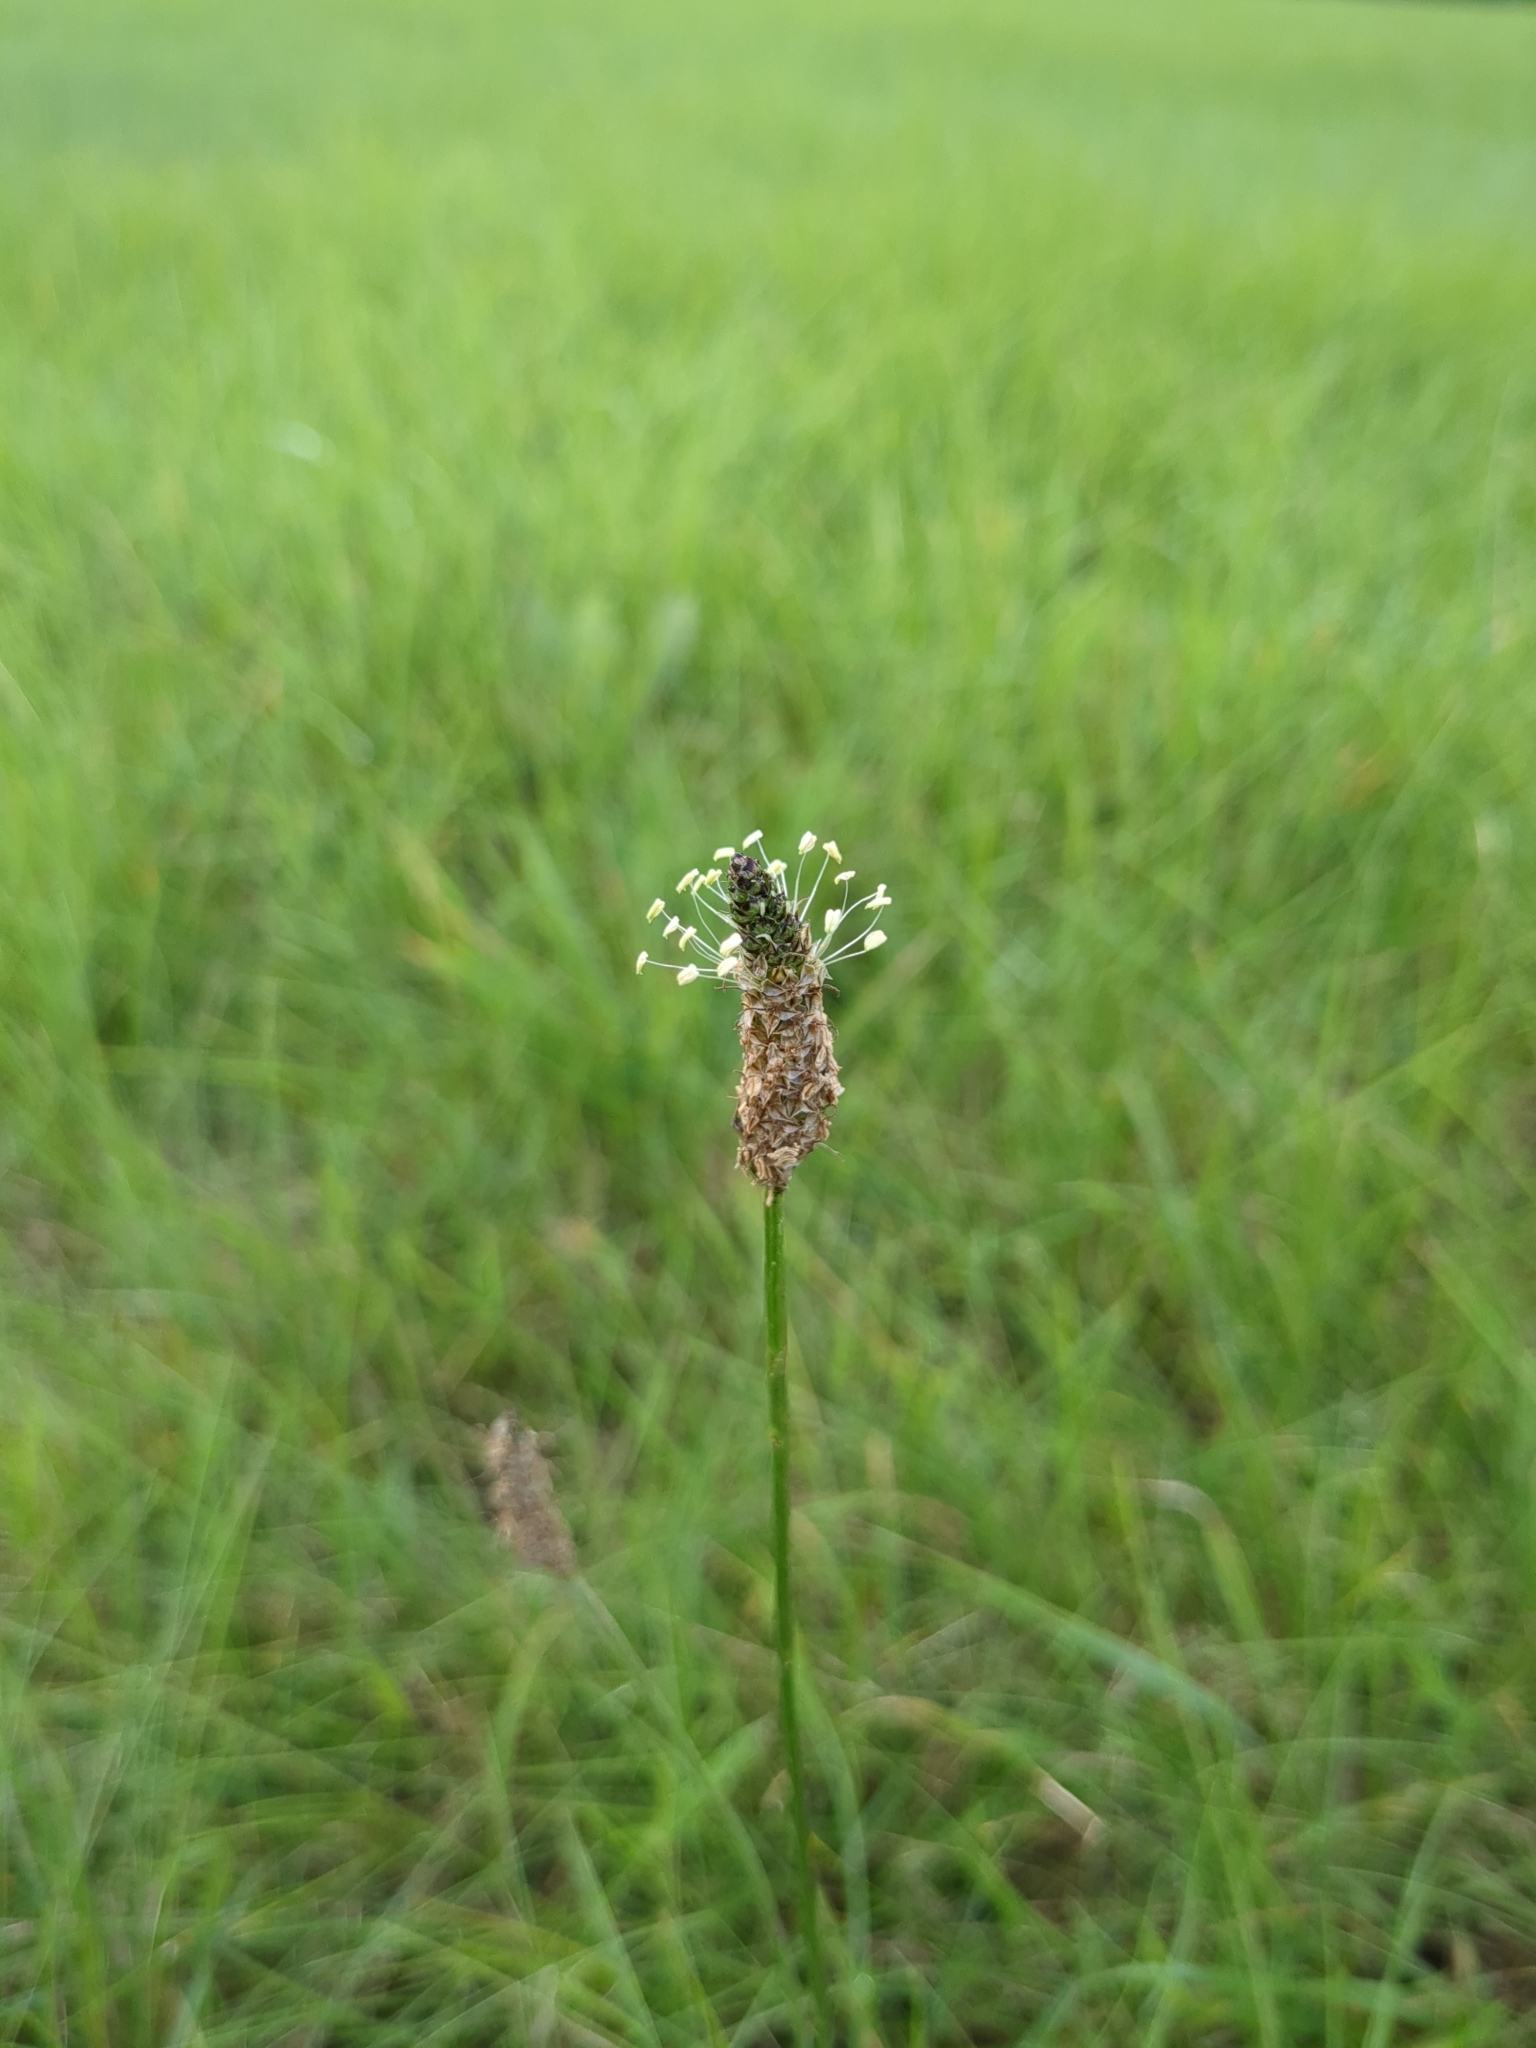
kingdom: Plantae
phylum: Tracheophyta
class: Magnoliopsida
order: Lamiales
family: Plantaginaceae
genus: Plantago
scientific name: Plantago lanceolata
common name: Ribwort plantain
